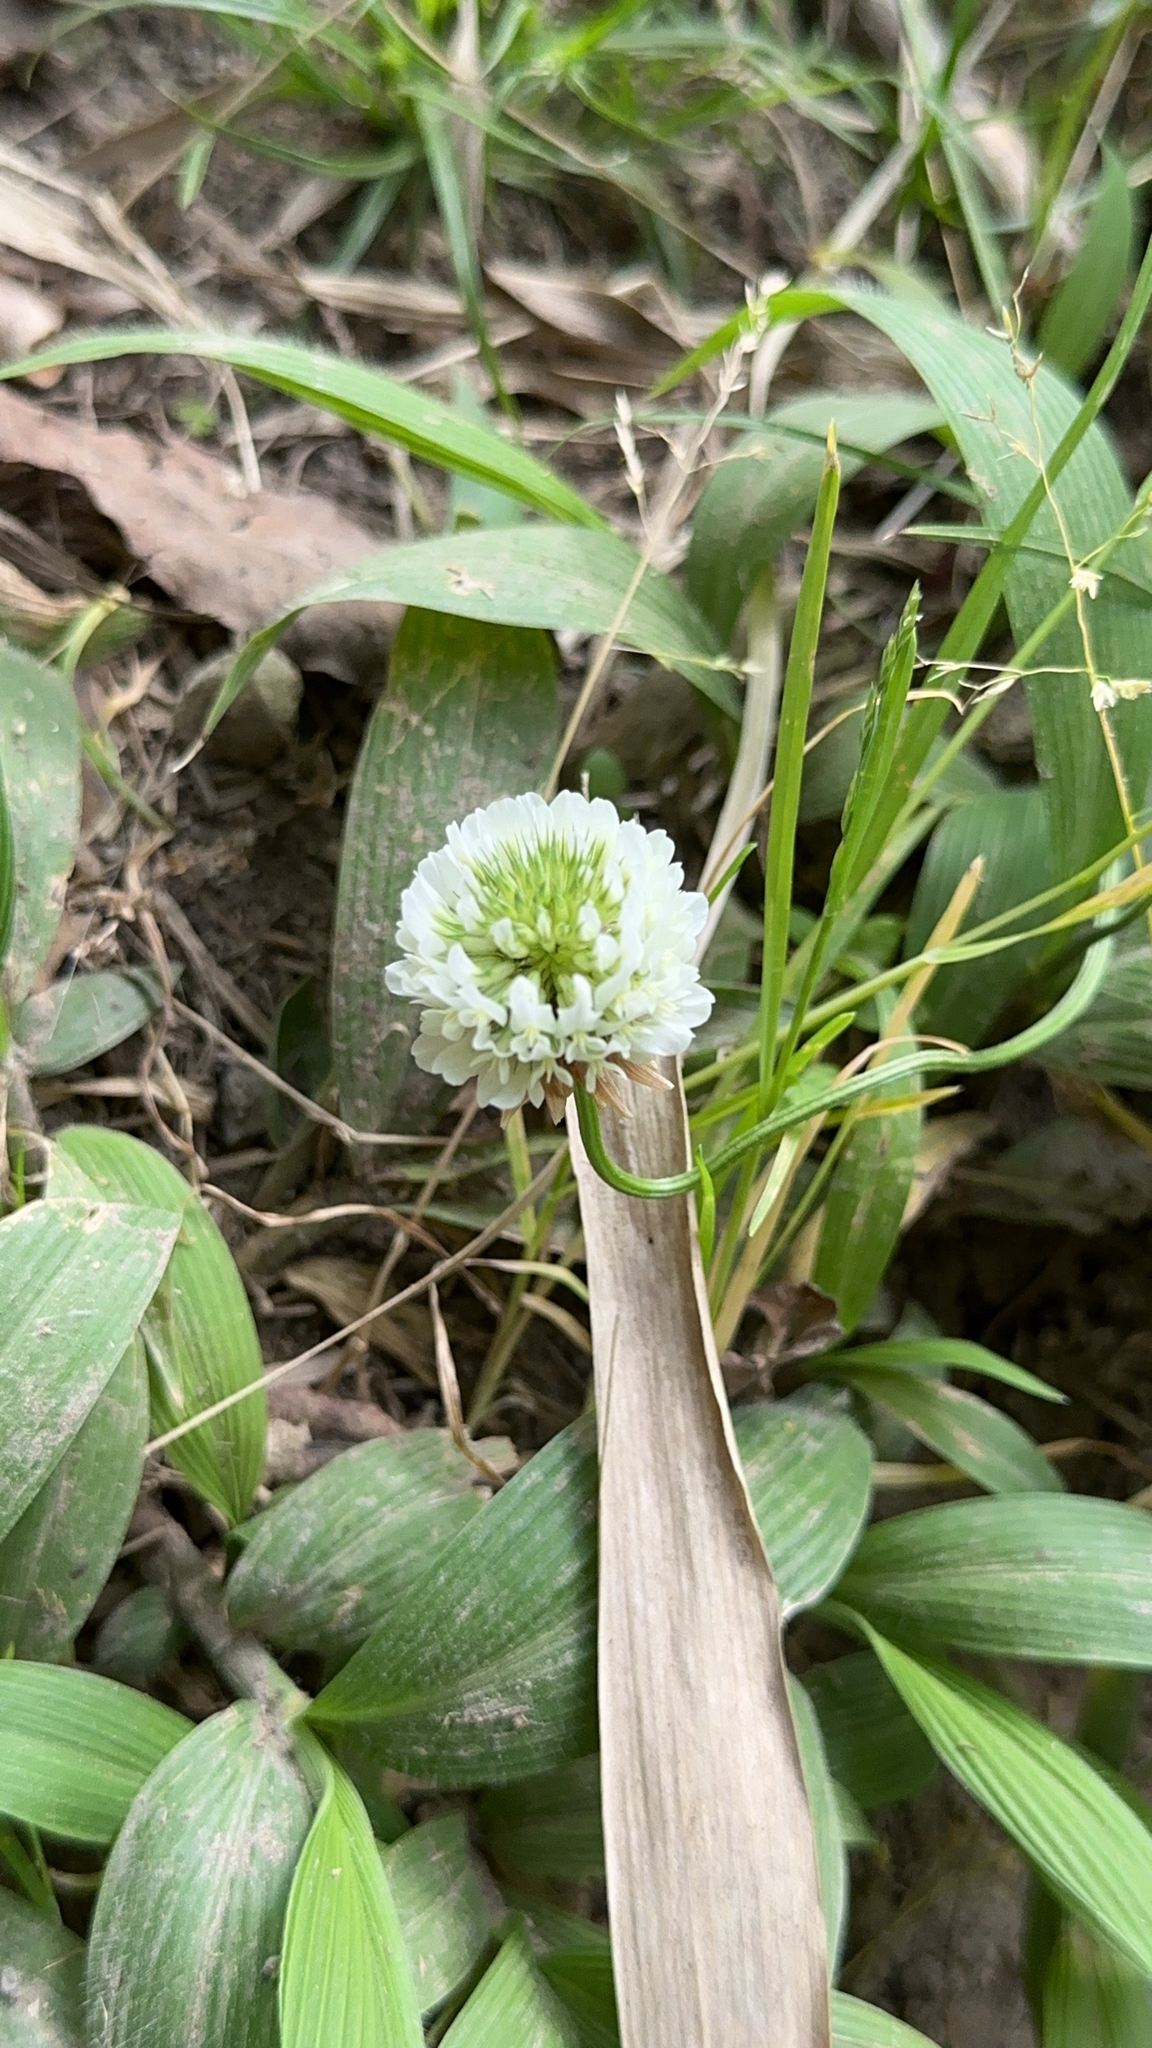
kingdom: Plantae
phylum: Tracheophyta
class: Magnoliopsida
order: Fabales
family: Fabaceae
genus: Trifolium
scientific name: Trifolium repens
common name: White clover
